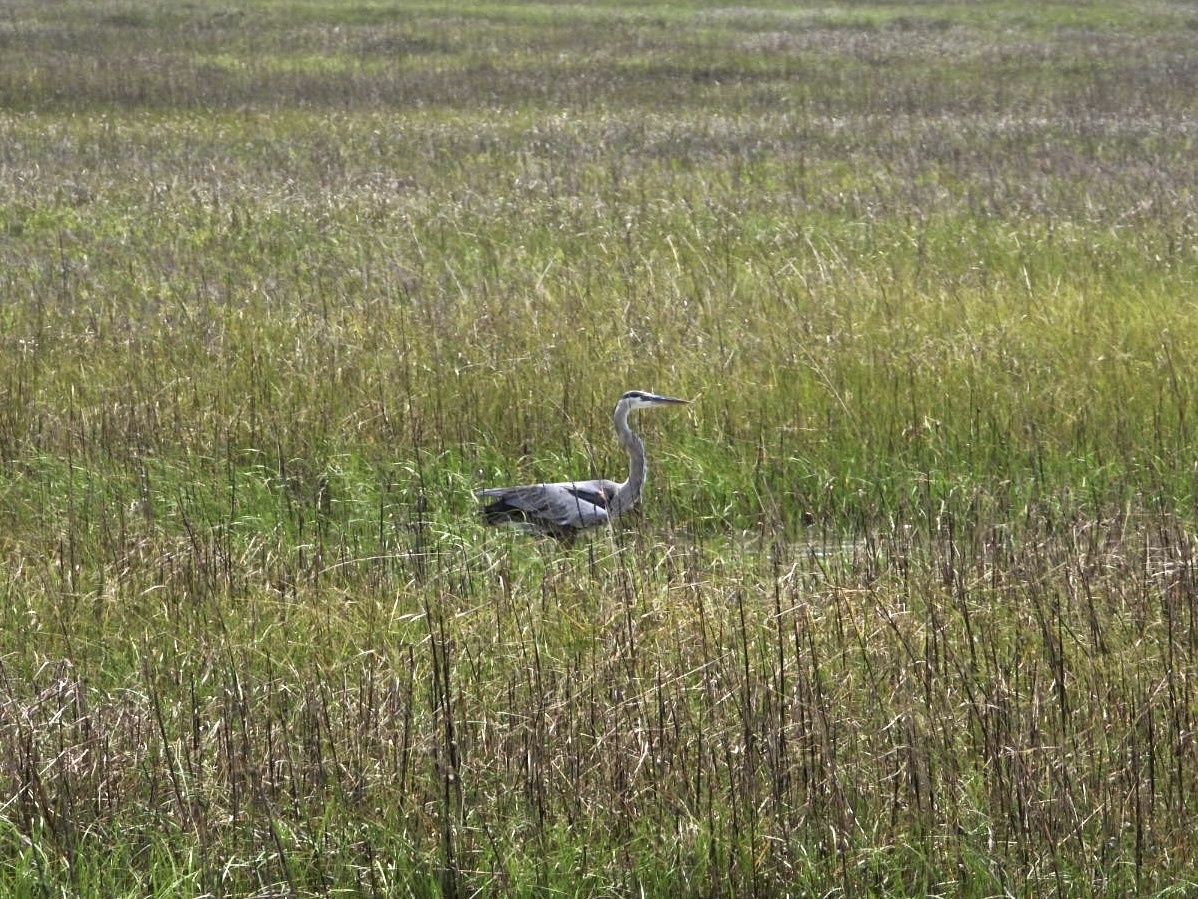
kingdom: Animalia
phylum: Chordata
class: Aves
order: Pelecaniformes
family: Ardeidae
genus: Ardea
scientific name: Ardea herodias
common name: Great blue heron
